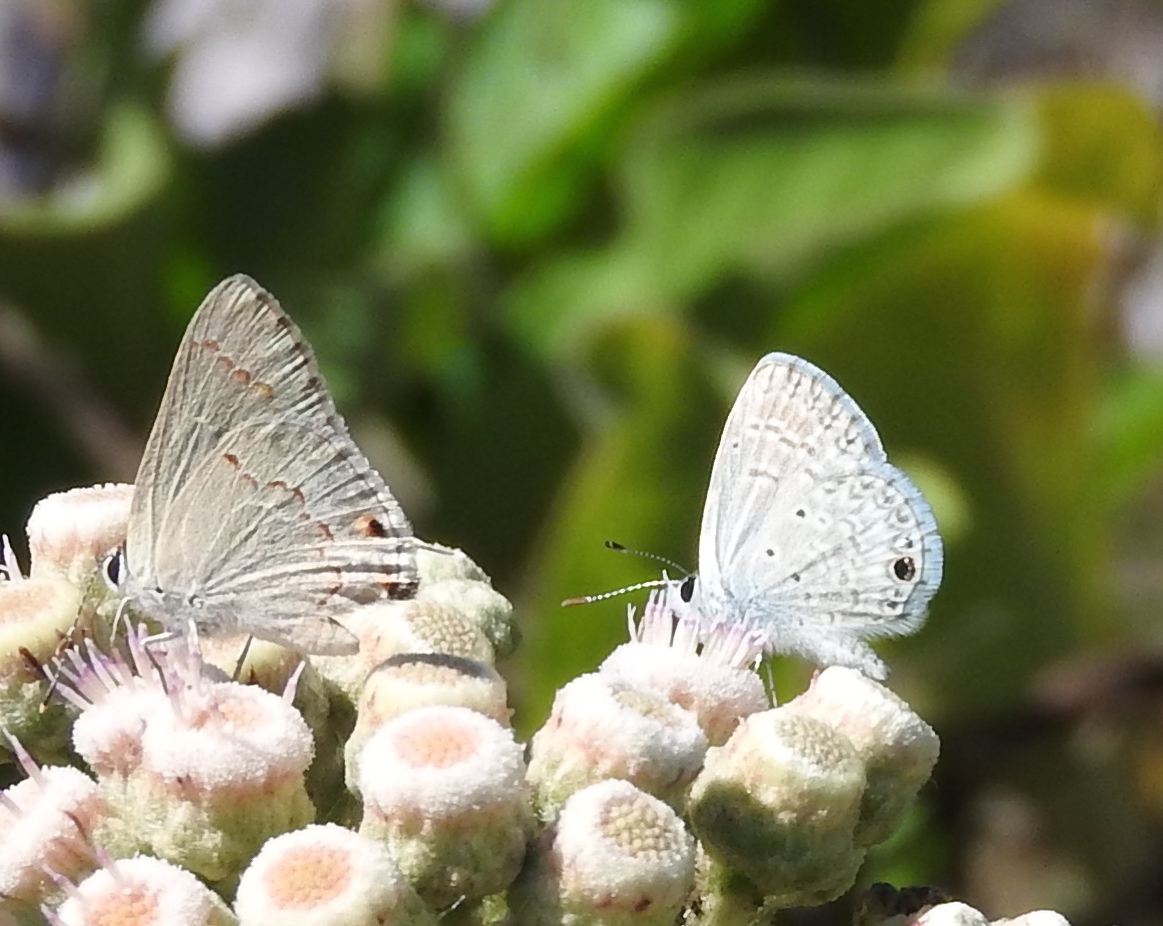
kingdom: Animalia
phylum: Arthropoda
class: Insecta
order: Lepidoptera
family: Lycaenidae
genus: Echinargus
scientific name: Echinargus isola
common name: Reakirt's blue
